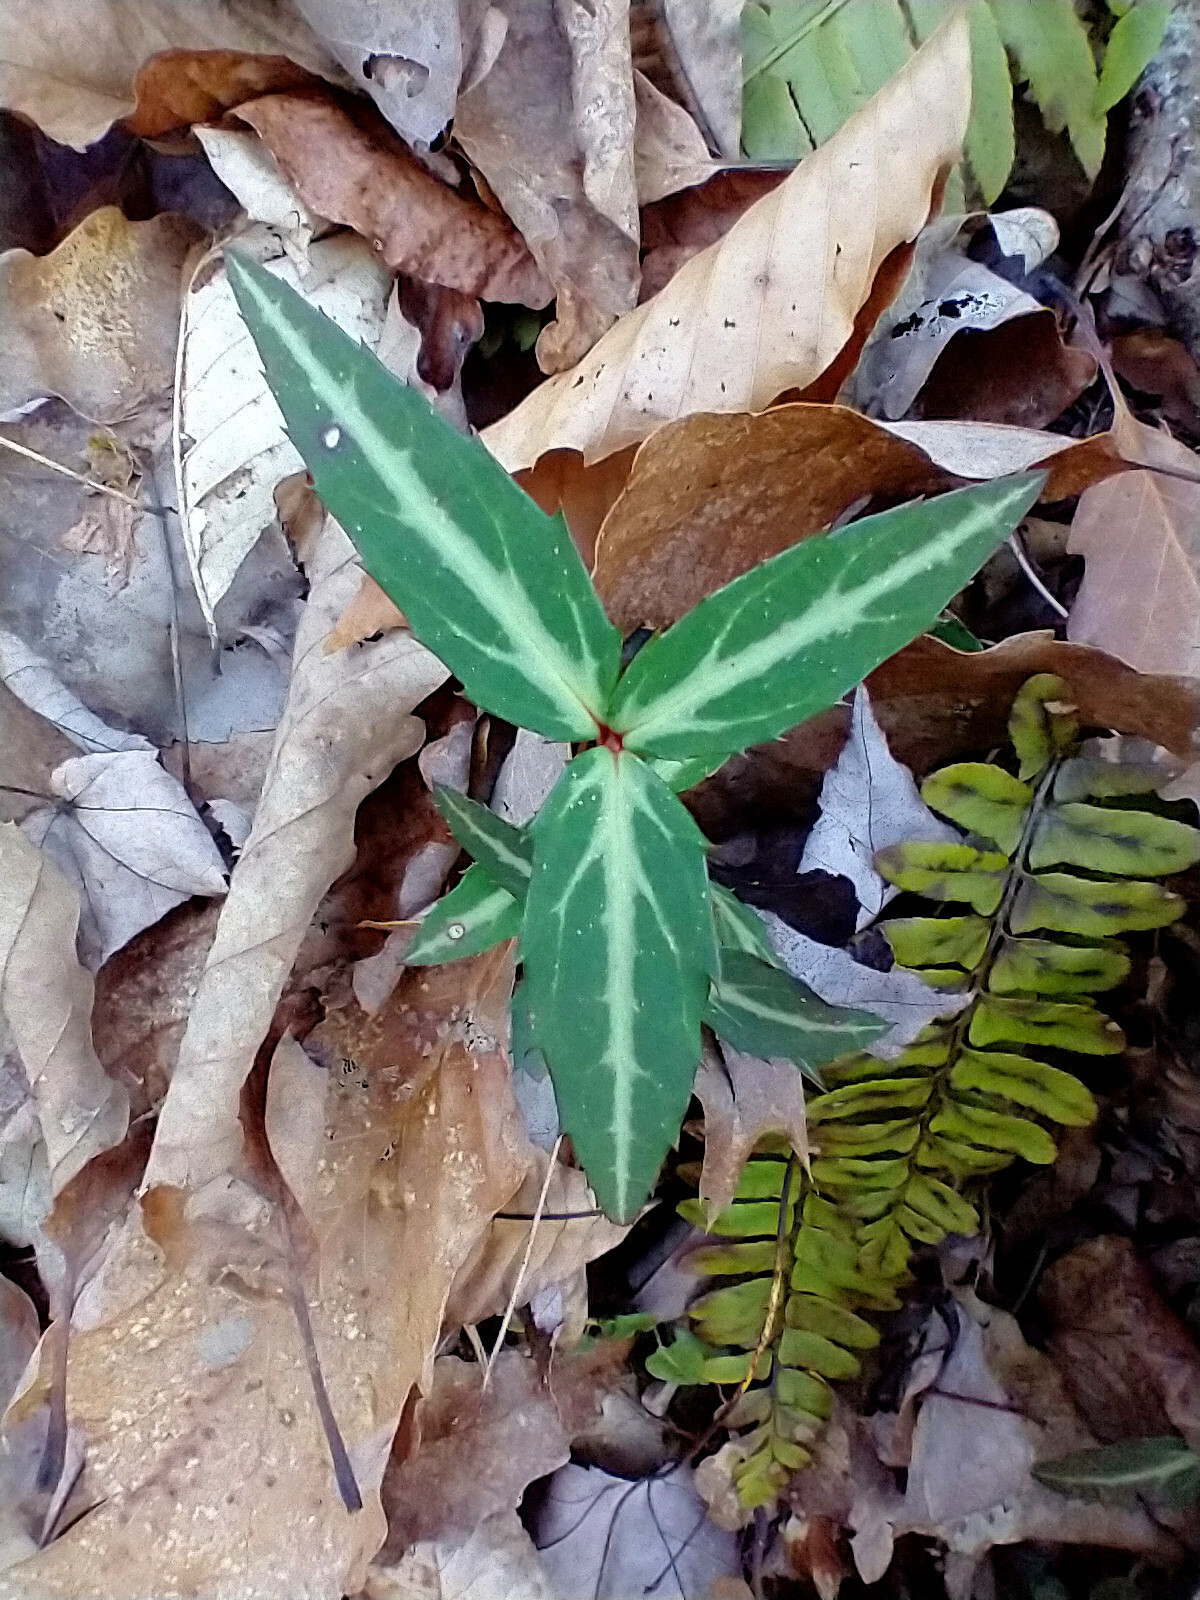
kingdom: Plantae
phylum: Tracheophyta
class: Magnoliopsida
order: Ericales
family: Ericaceae
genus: Chimaphila
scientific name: Chimaphila maculata
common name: Spotted pipsissewa
